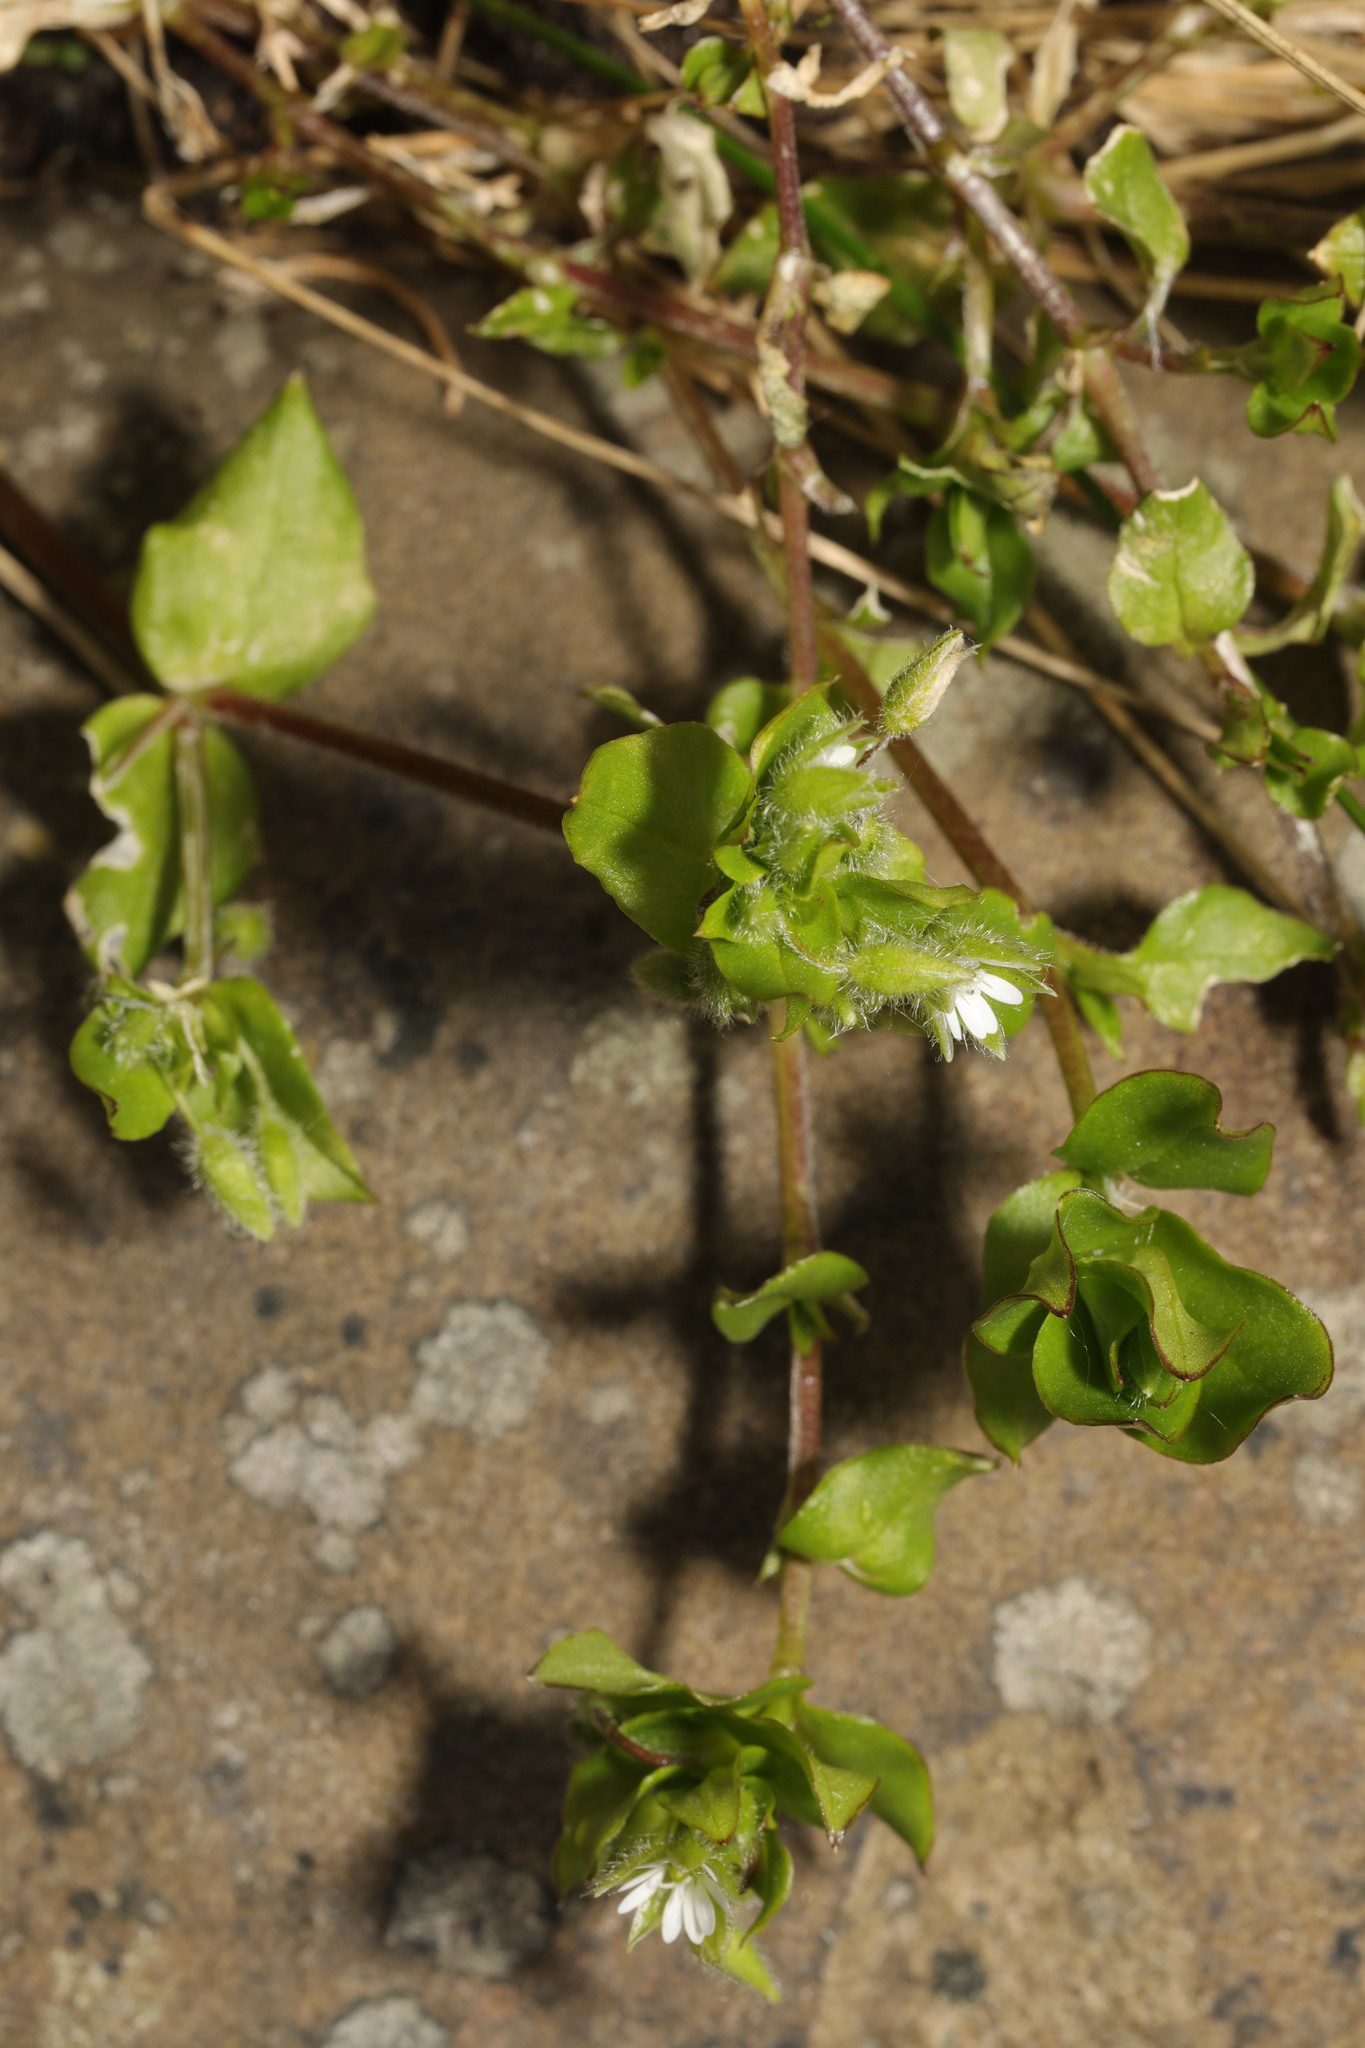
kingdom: Plantae
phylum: Tracheophyta
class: Magnoliopsida
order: Caryophyllales
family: Caryophyllaceae
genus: Stellaria
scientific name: Stellaria media
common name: Common chickweed
